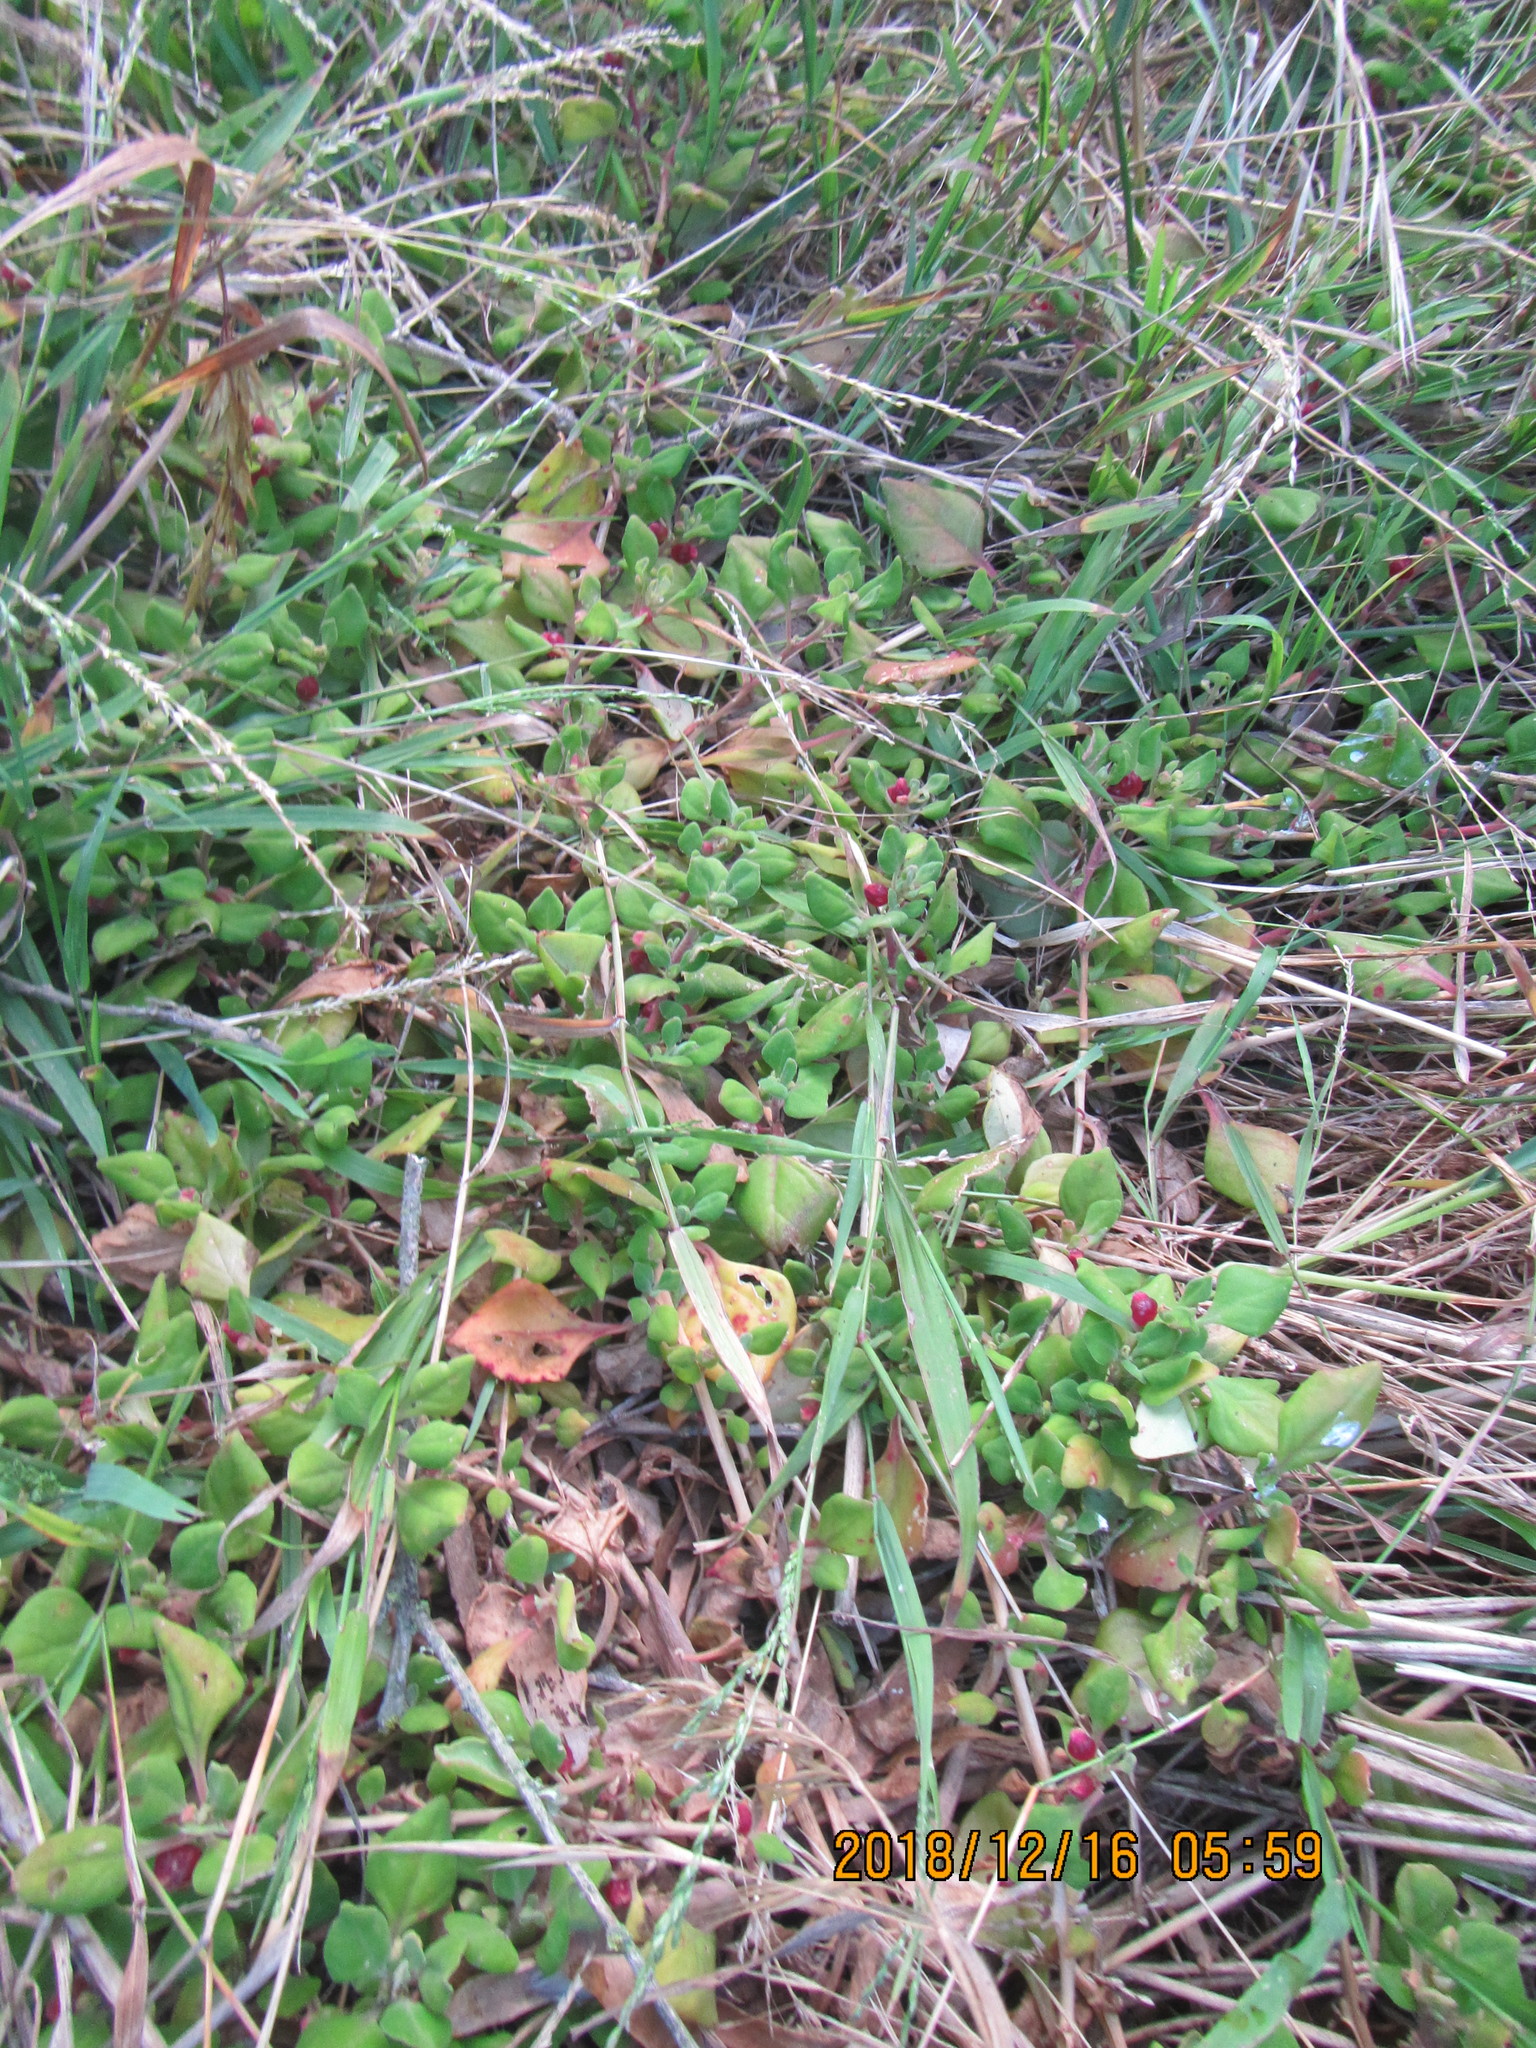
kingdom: Plantae
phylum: Tracheophyta
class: Magnoliopsida
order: Caryophyllales
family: Aizoaceae
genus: Tetragonia
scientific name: Tetragonia implexicoma
